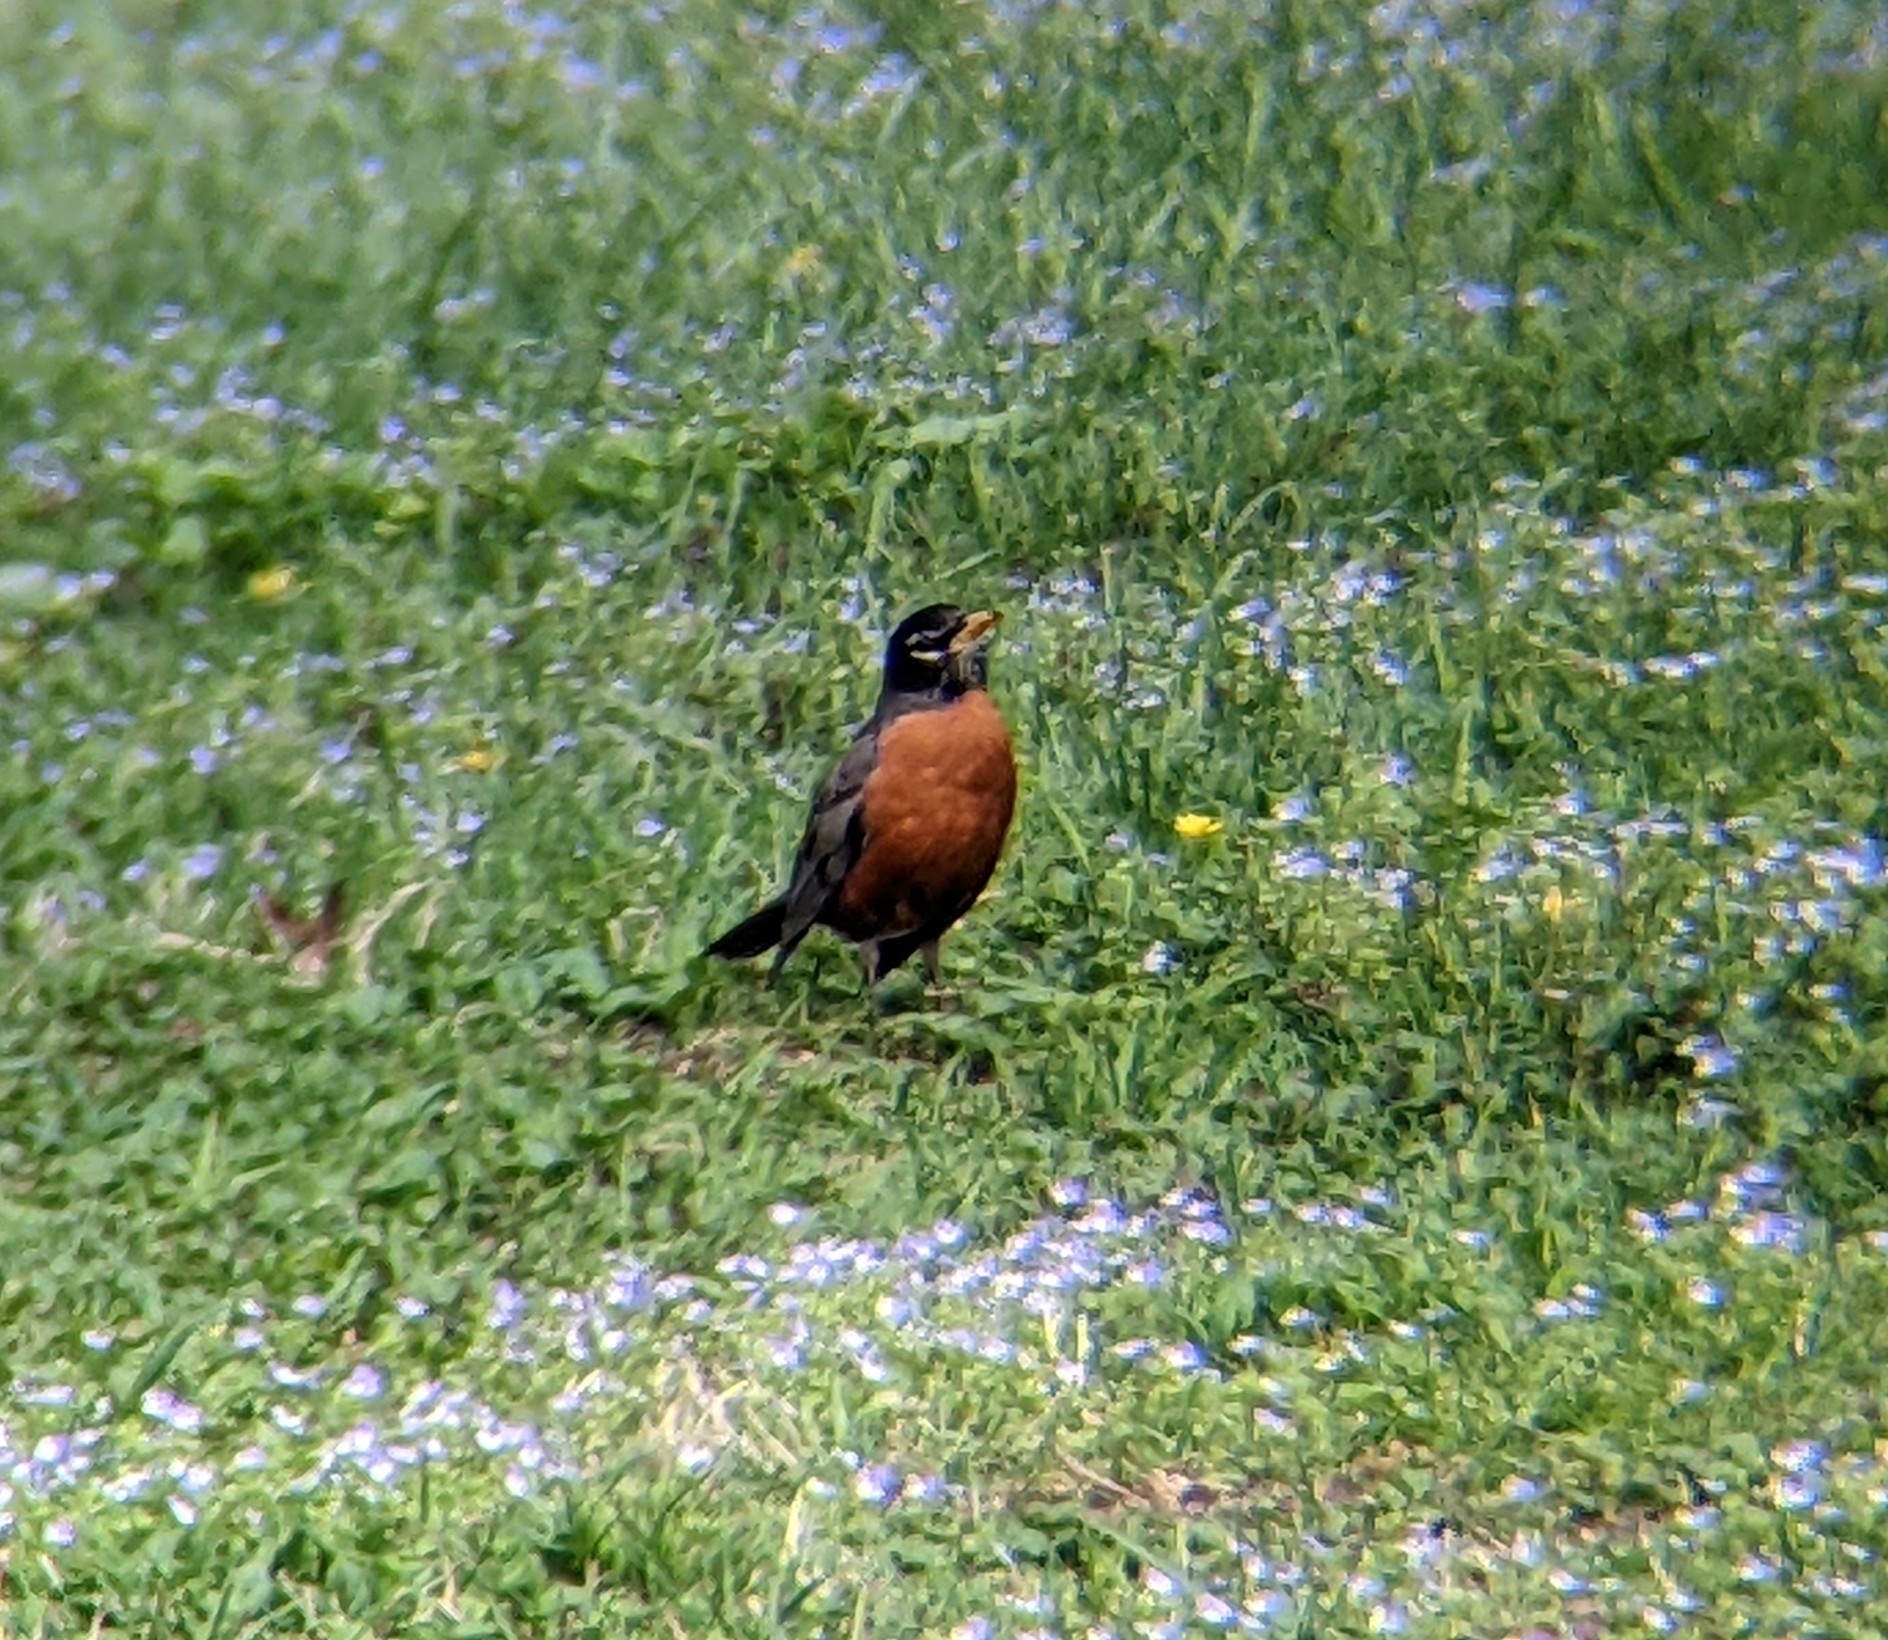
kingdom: Animalia
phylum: Chordata
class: Aves
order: Passeriformes
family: Turdidae
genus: Turdus
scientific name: Turdus migratorius
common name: American robin
